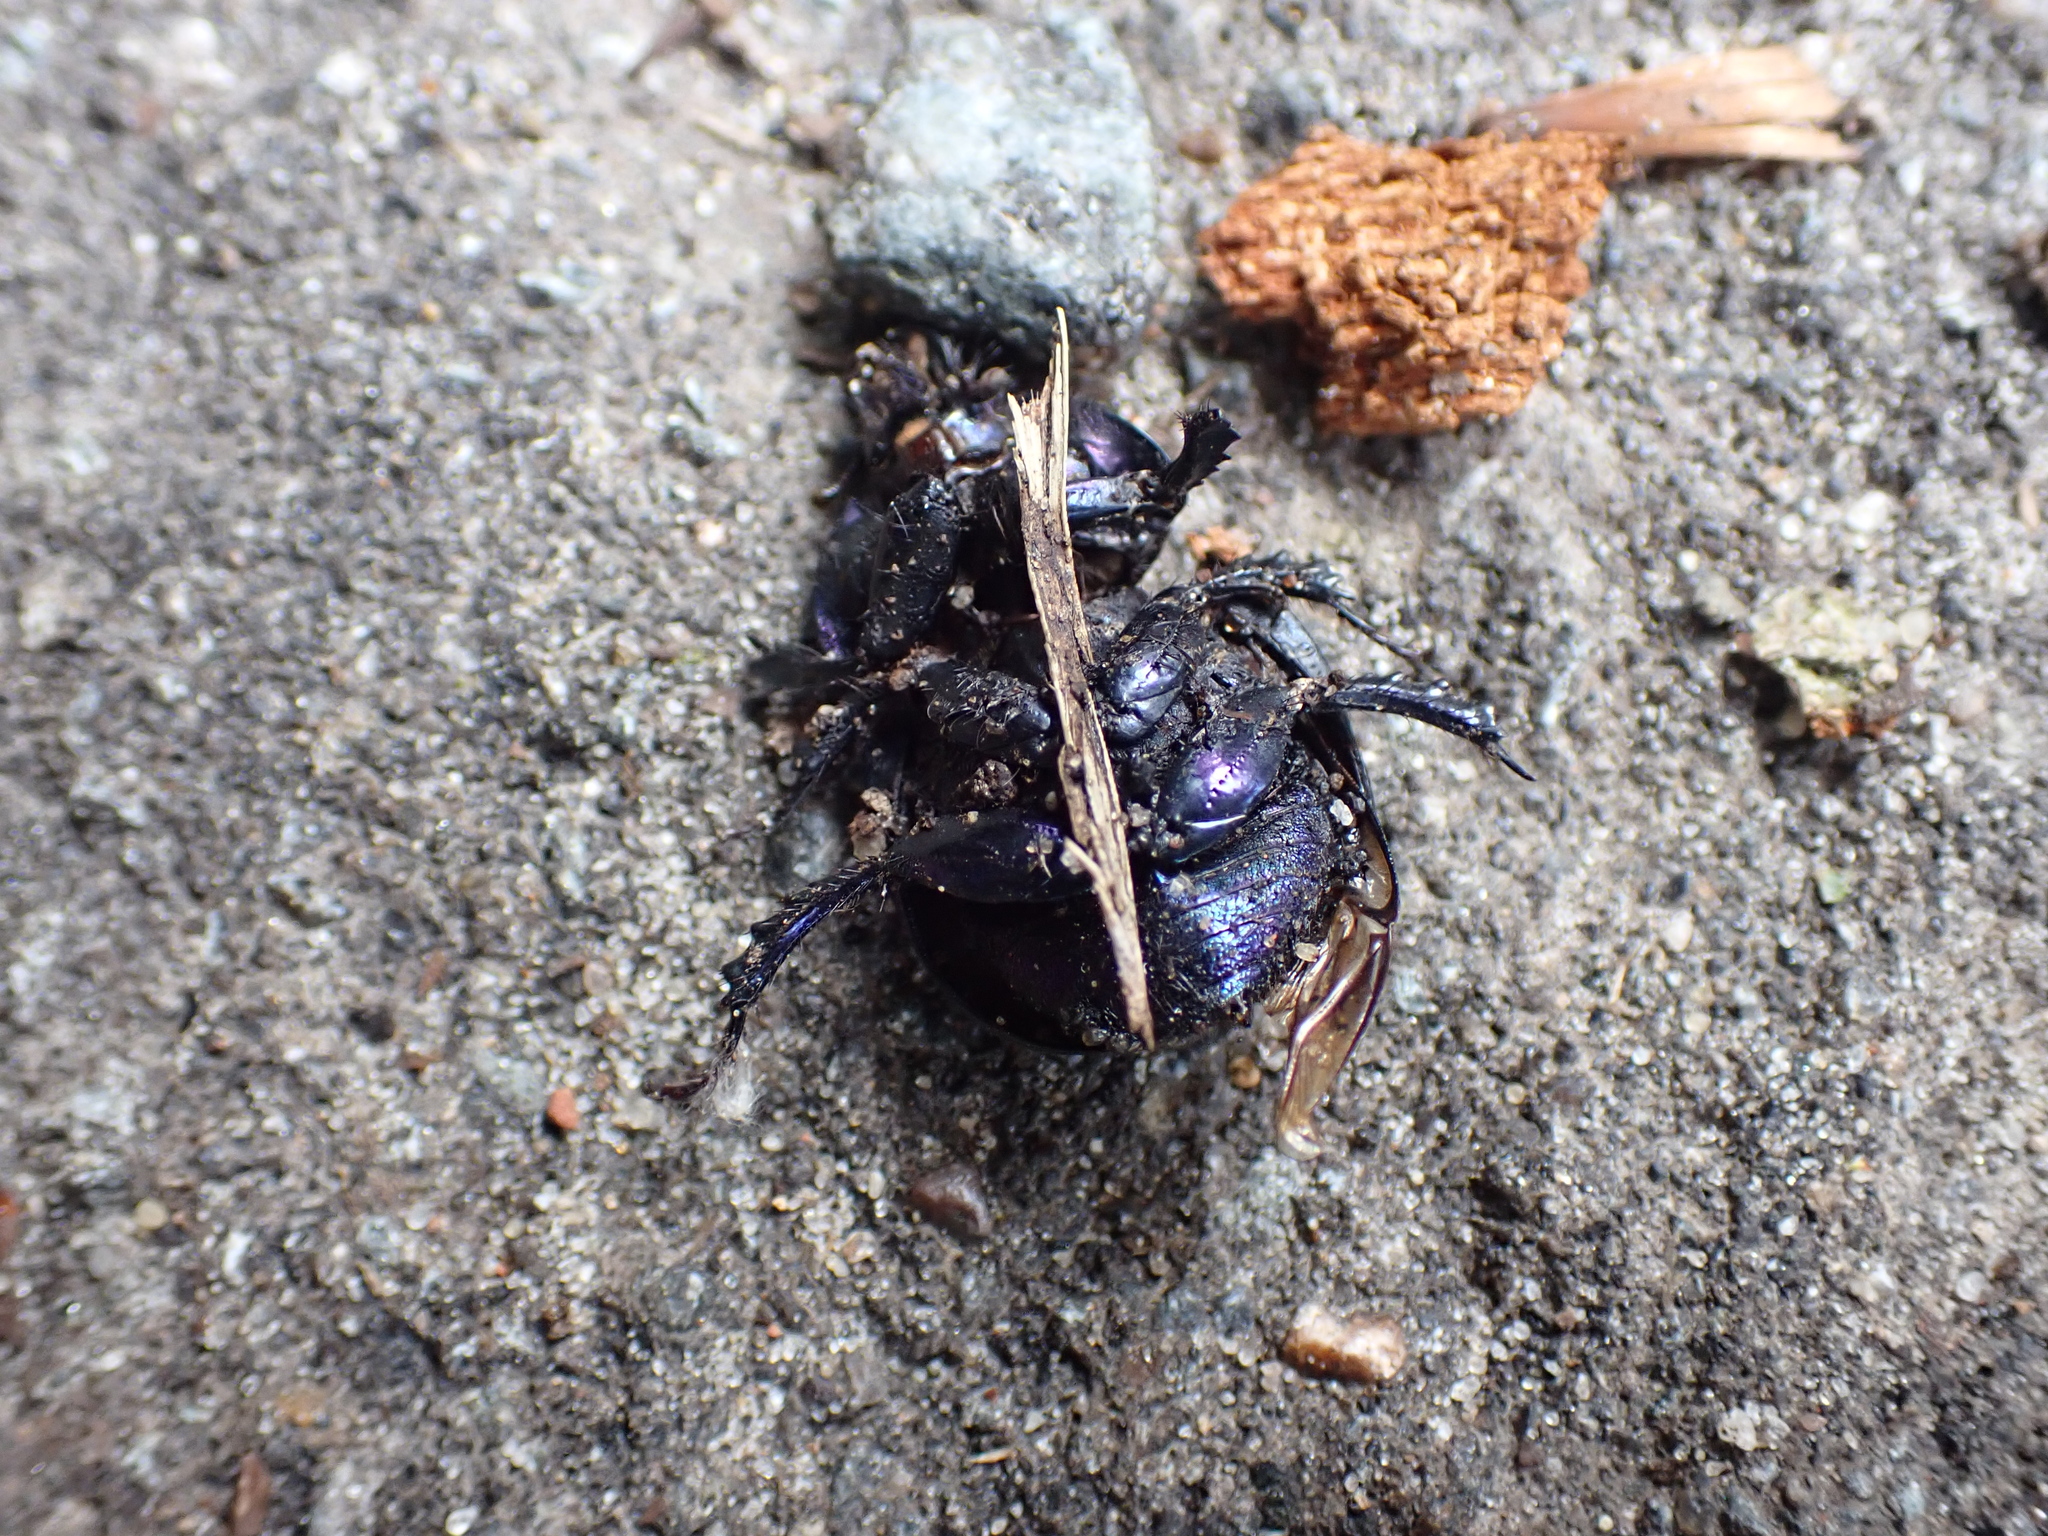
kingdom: Animalia
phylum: Arthropoda
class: Insecta
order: Coleoptera
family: Geotrupidae
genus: Anoplotrupes
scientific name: Anoplotrupes stercorosus
